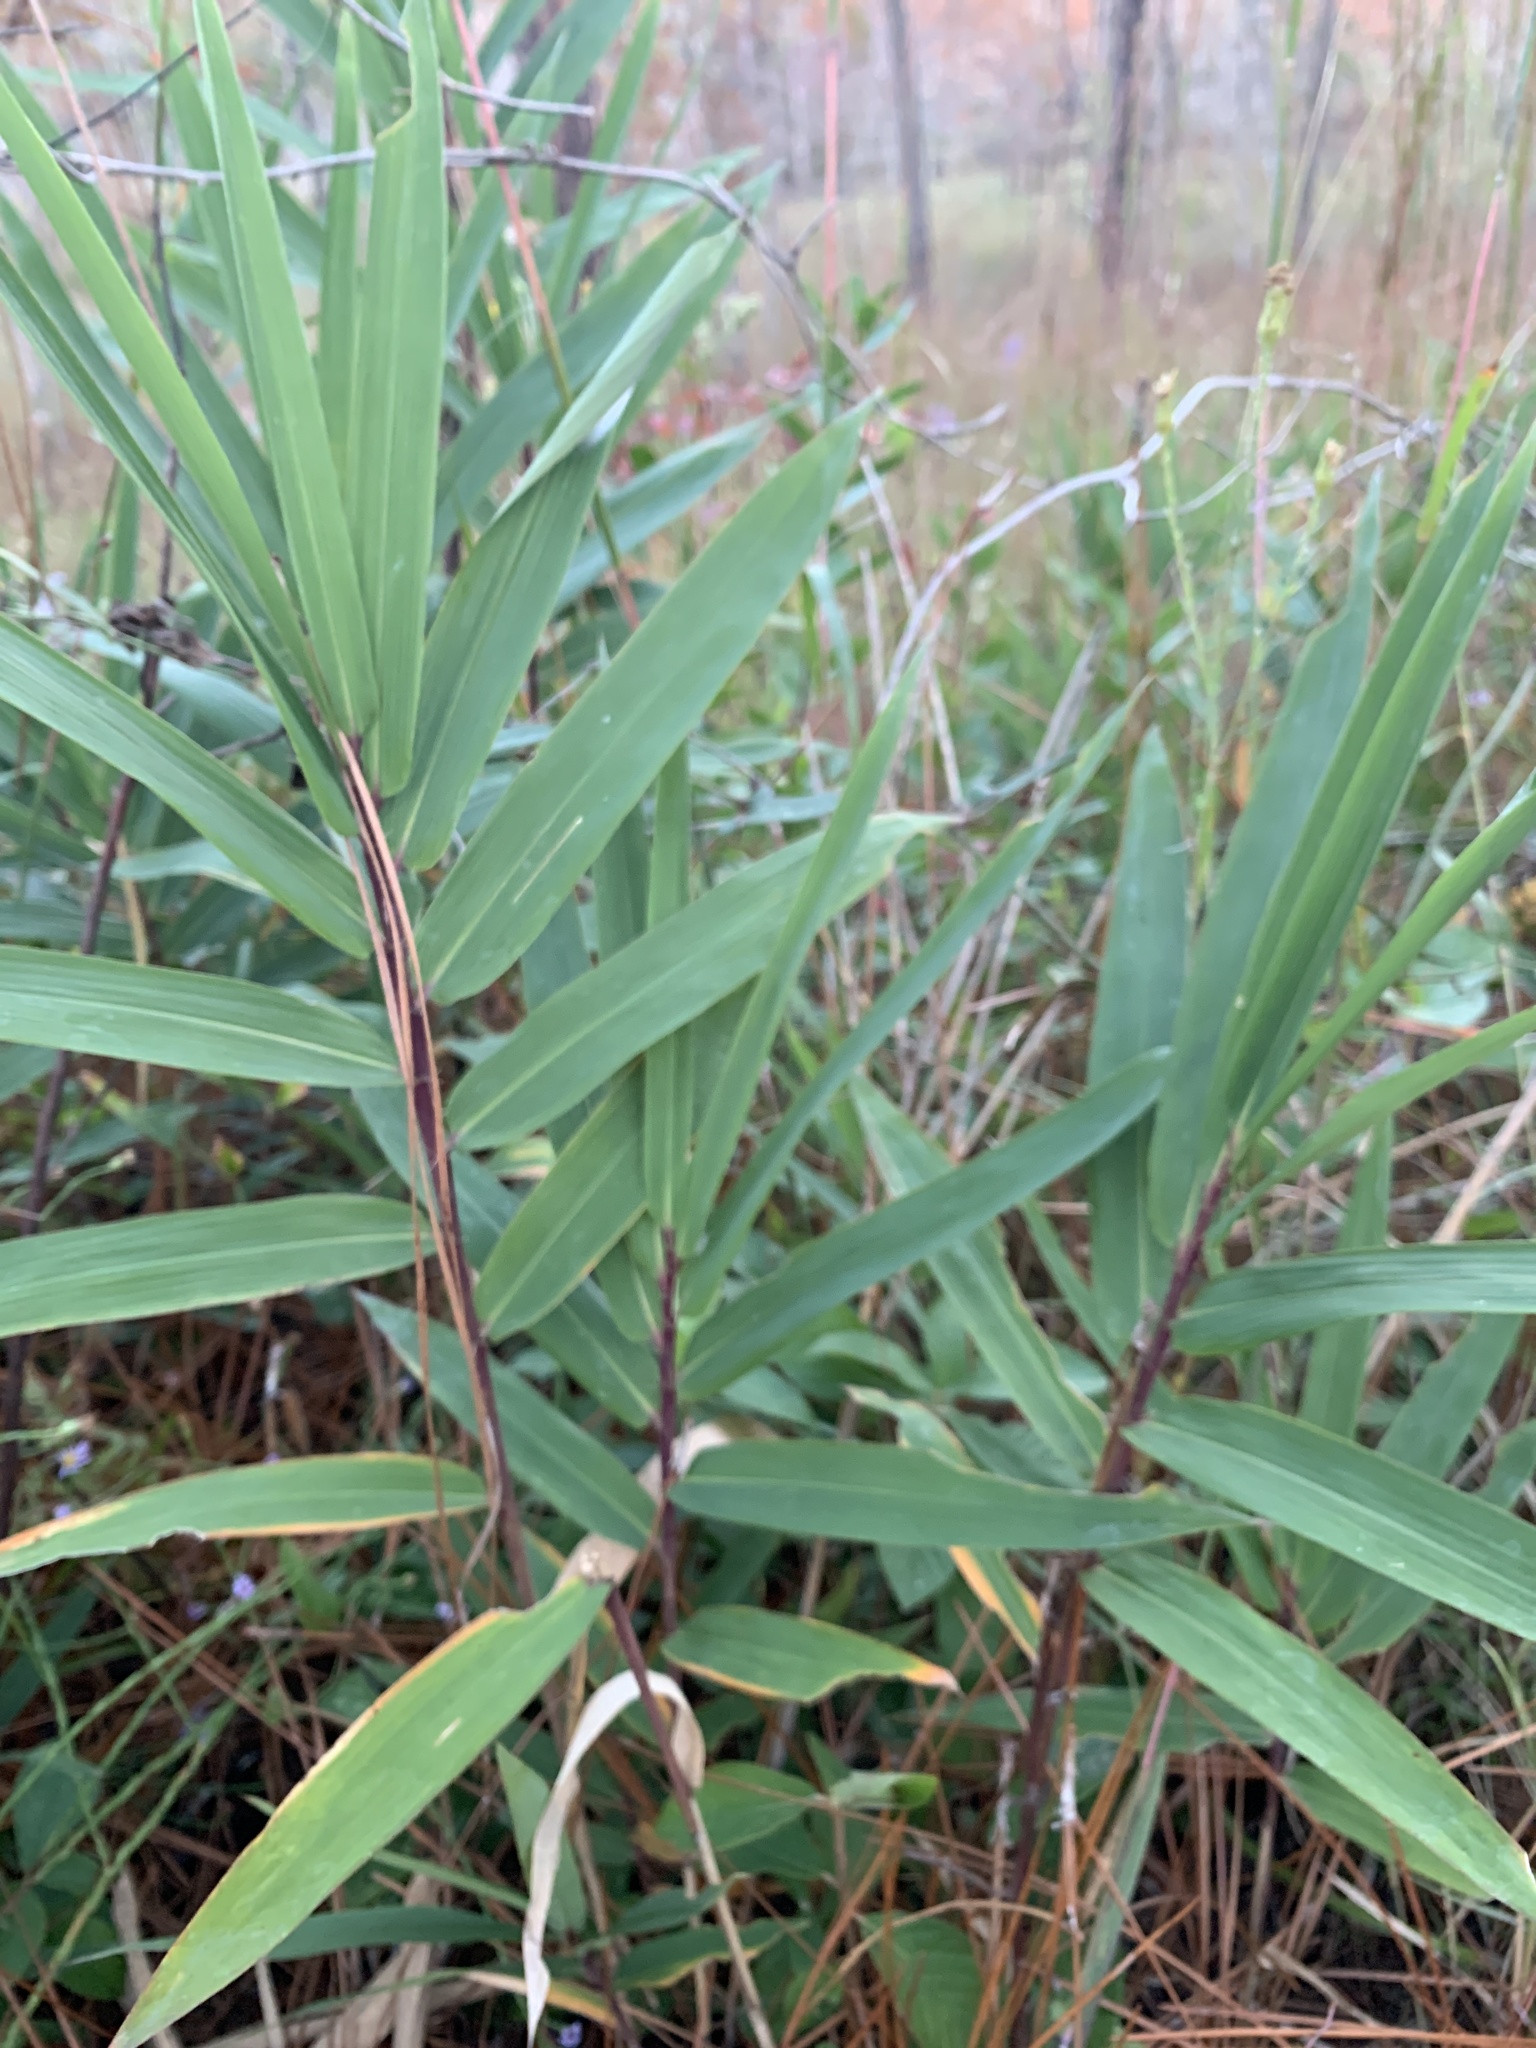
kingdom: Plantae
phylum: Tracheophyta
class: Liliopsida
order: Poales
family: Poaceae
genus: Arundinaria
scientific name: Arundinaria tecta
